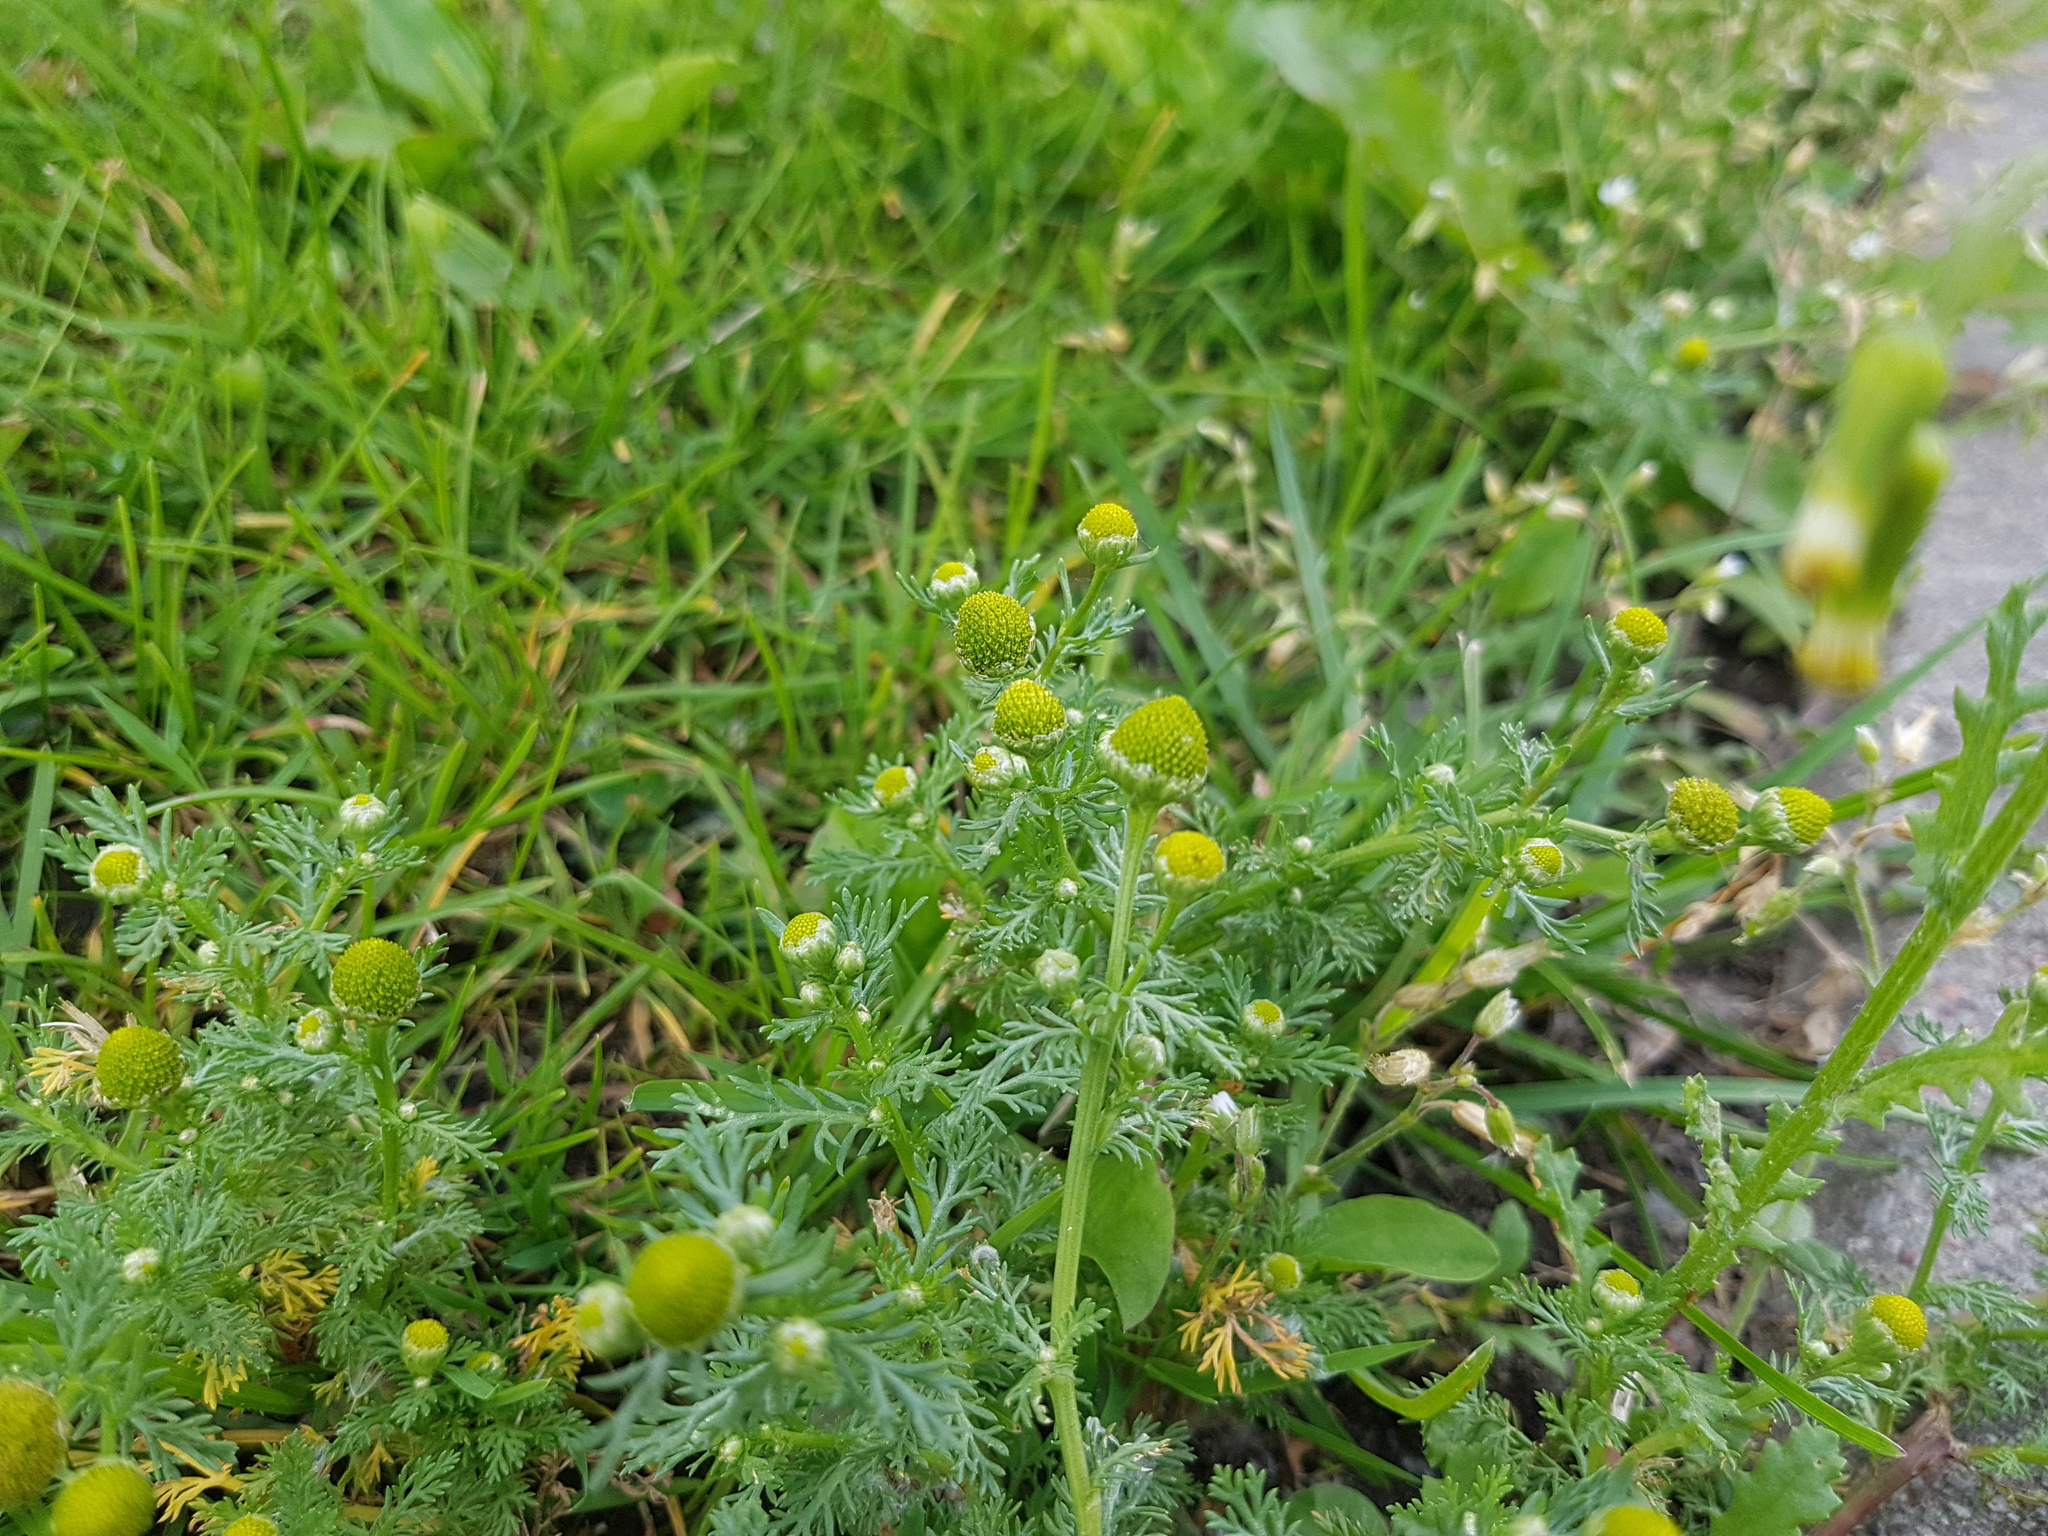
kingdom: Plantae
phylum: Tracheophyta
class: Magnoliopsida
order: Asterales
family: Asteraceae
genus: Matricaria
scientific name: Matricaria discoidea
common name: Disc mayweed
